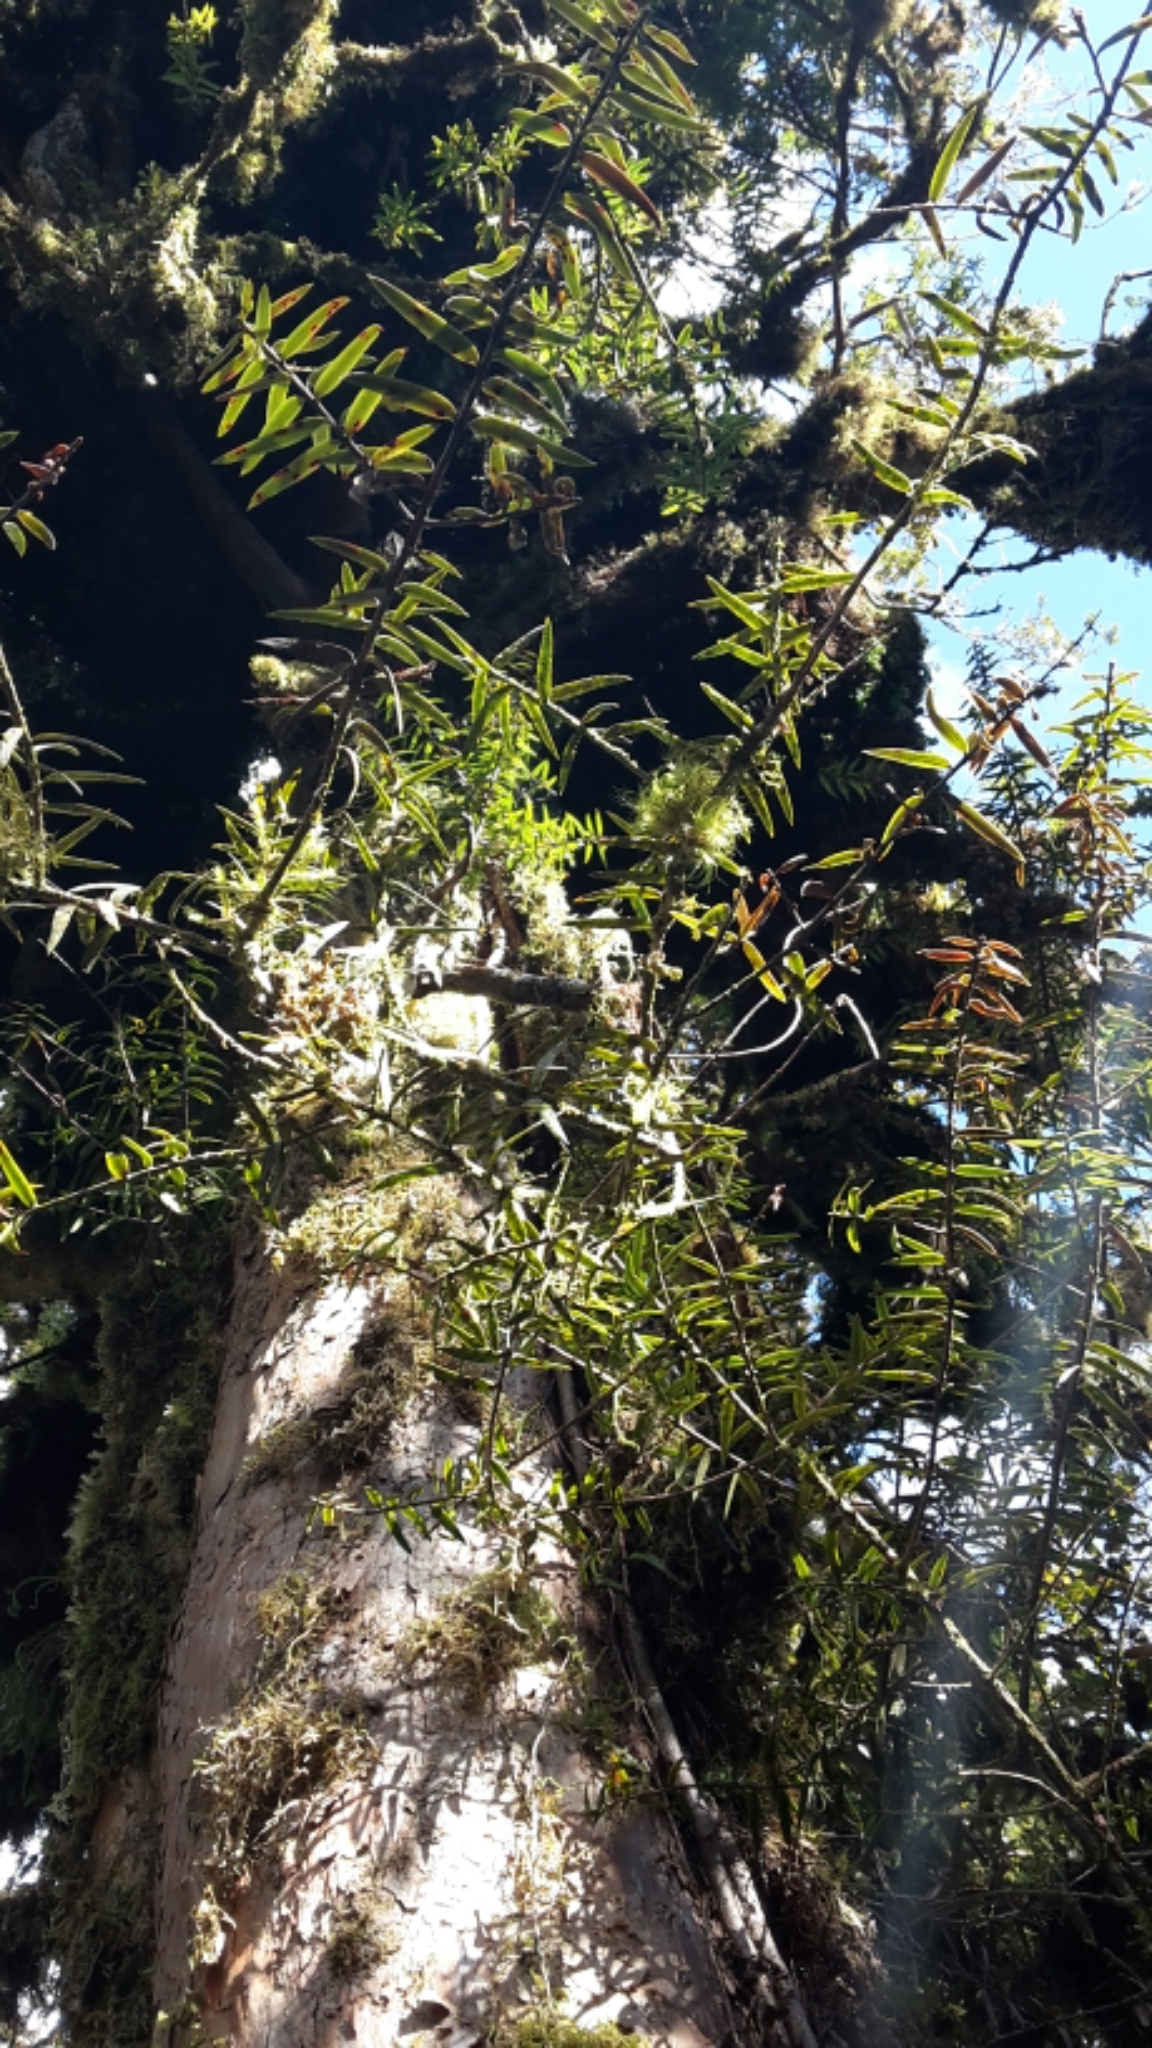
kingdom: Plantae
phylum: Tracheophyta
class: Pinopsida
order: Pinales
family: Podocarpaceae
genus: Podocarpus
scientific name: Podocarpus laetus
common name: Hall's totara
